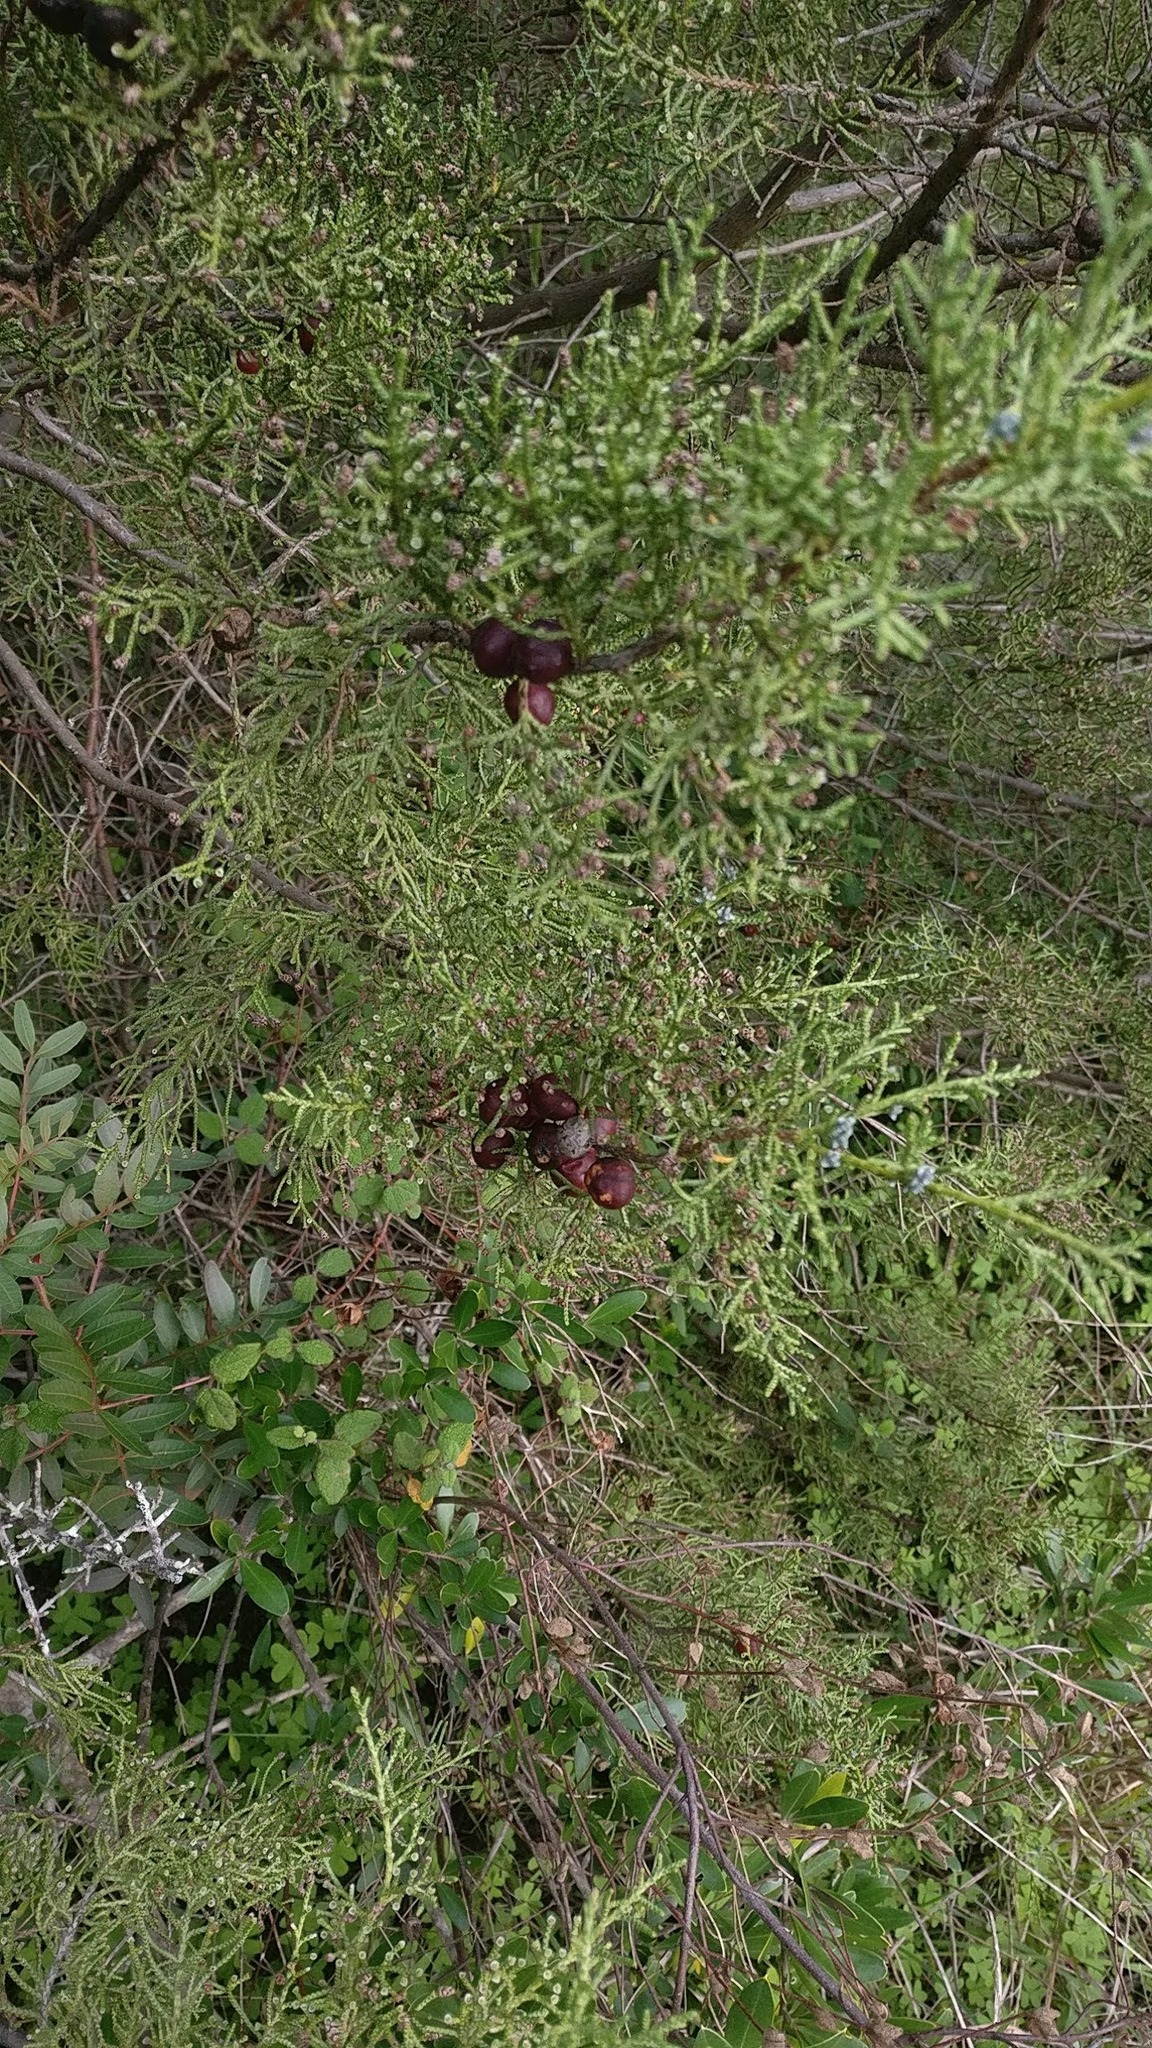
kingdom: Plantae
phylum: Tracheophyta
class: Pinopsida
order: Pinales
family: Cupressaceae
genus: Juniperus
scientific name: Juniperus phoenicea
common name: Phoenician juniper
